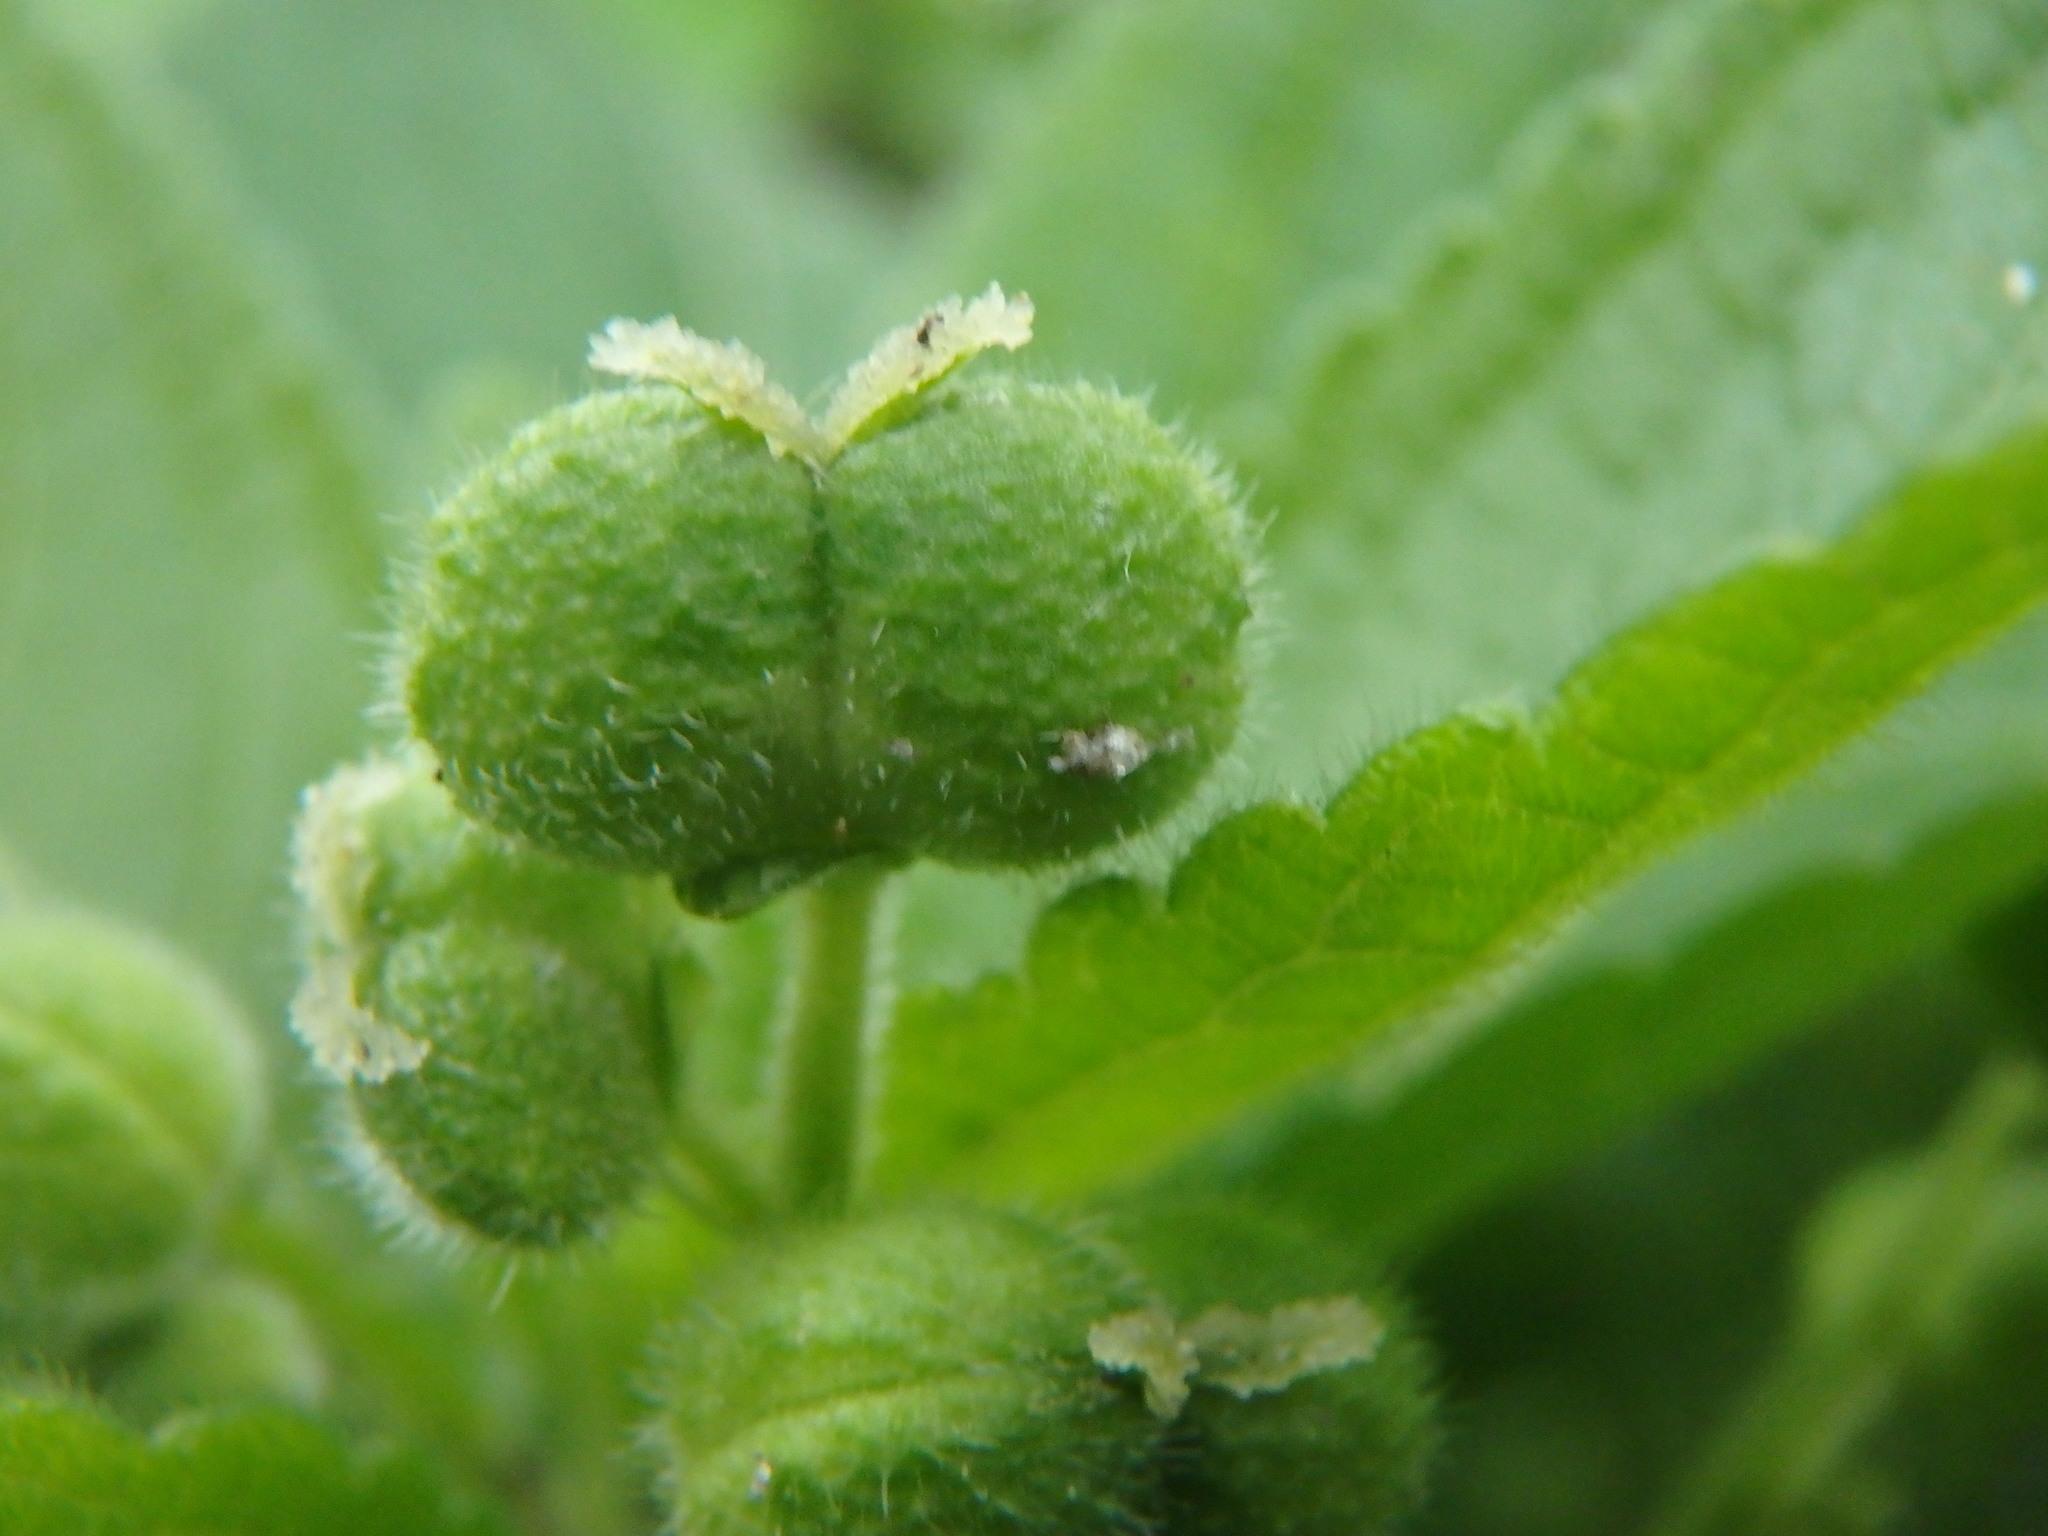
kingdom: Plantae
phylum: Tracheophyta
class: Magnoliopsida
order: Malpighiales
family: Euphorbiaceae
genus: Mercurialis
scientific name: Mercurialis perennis
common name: Dog mercury
